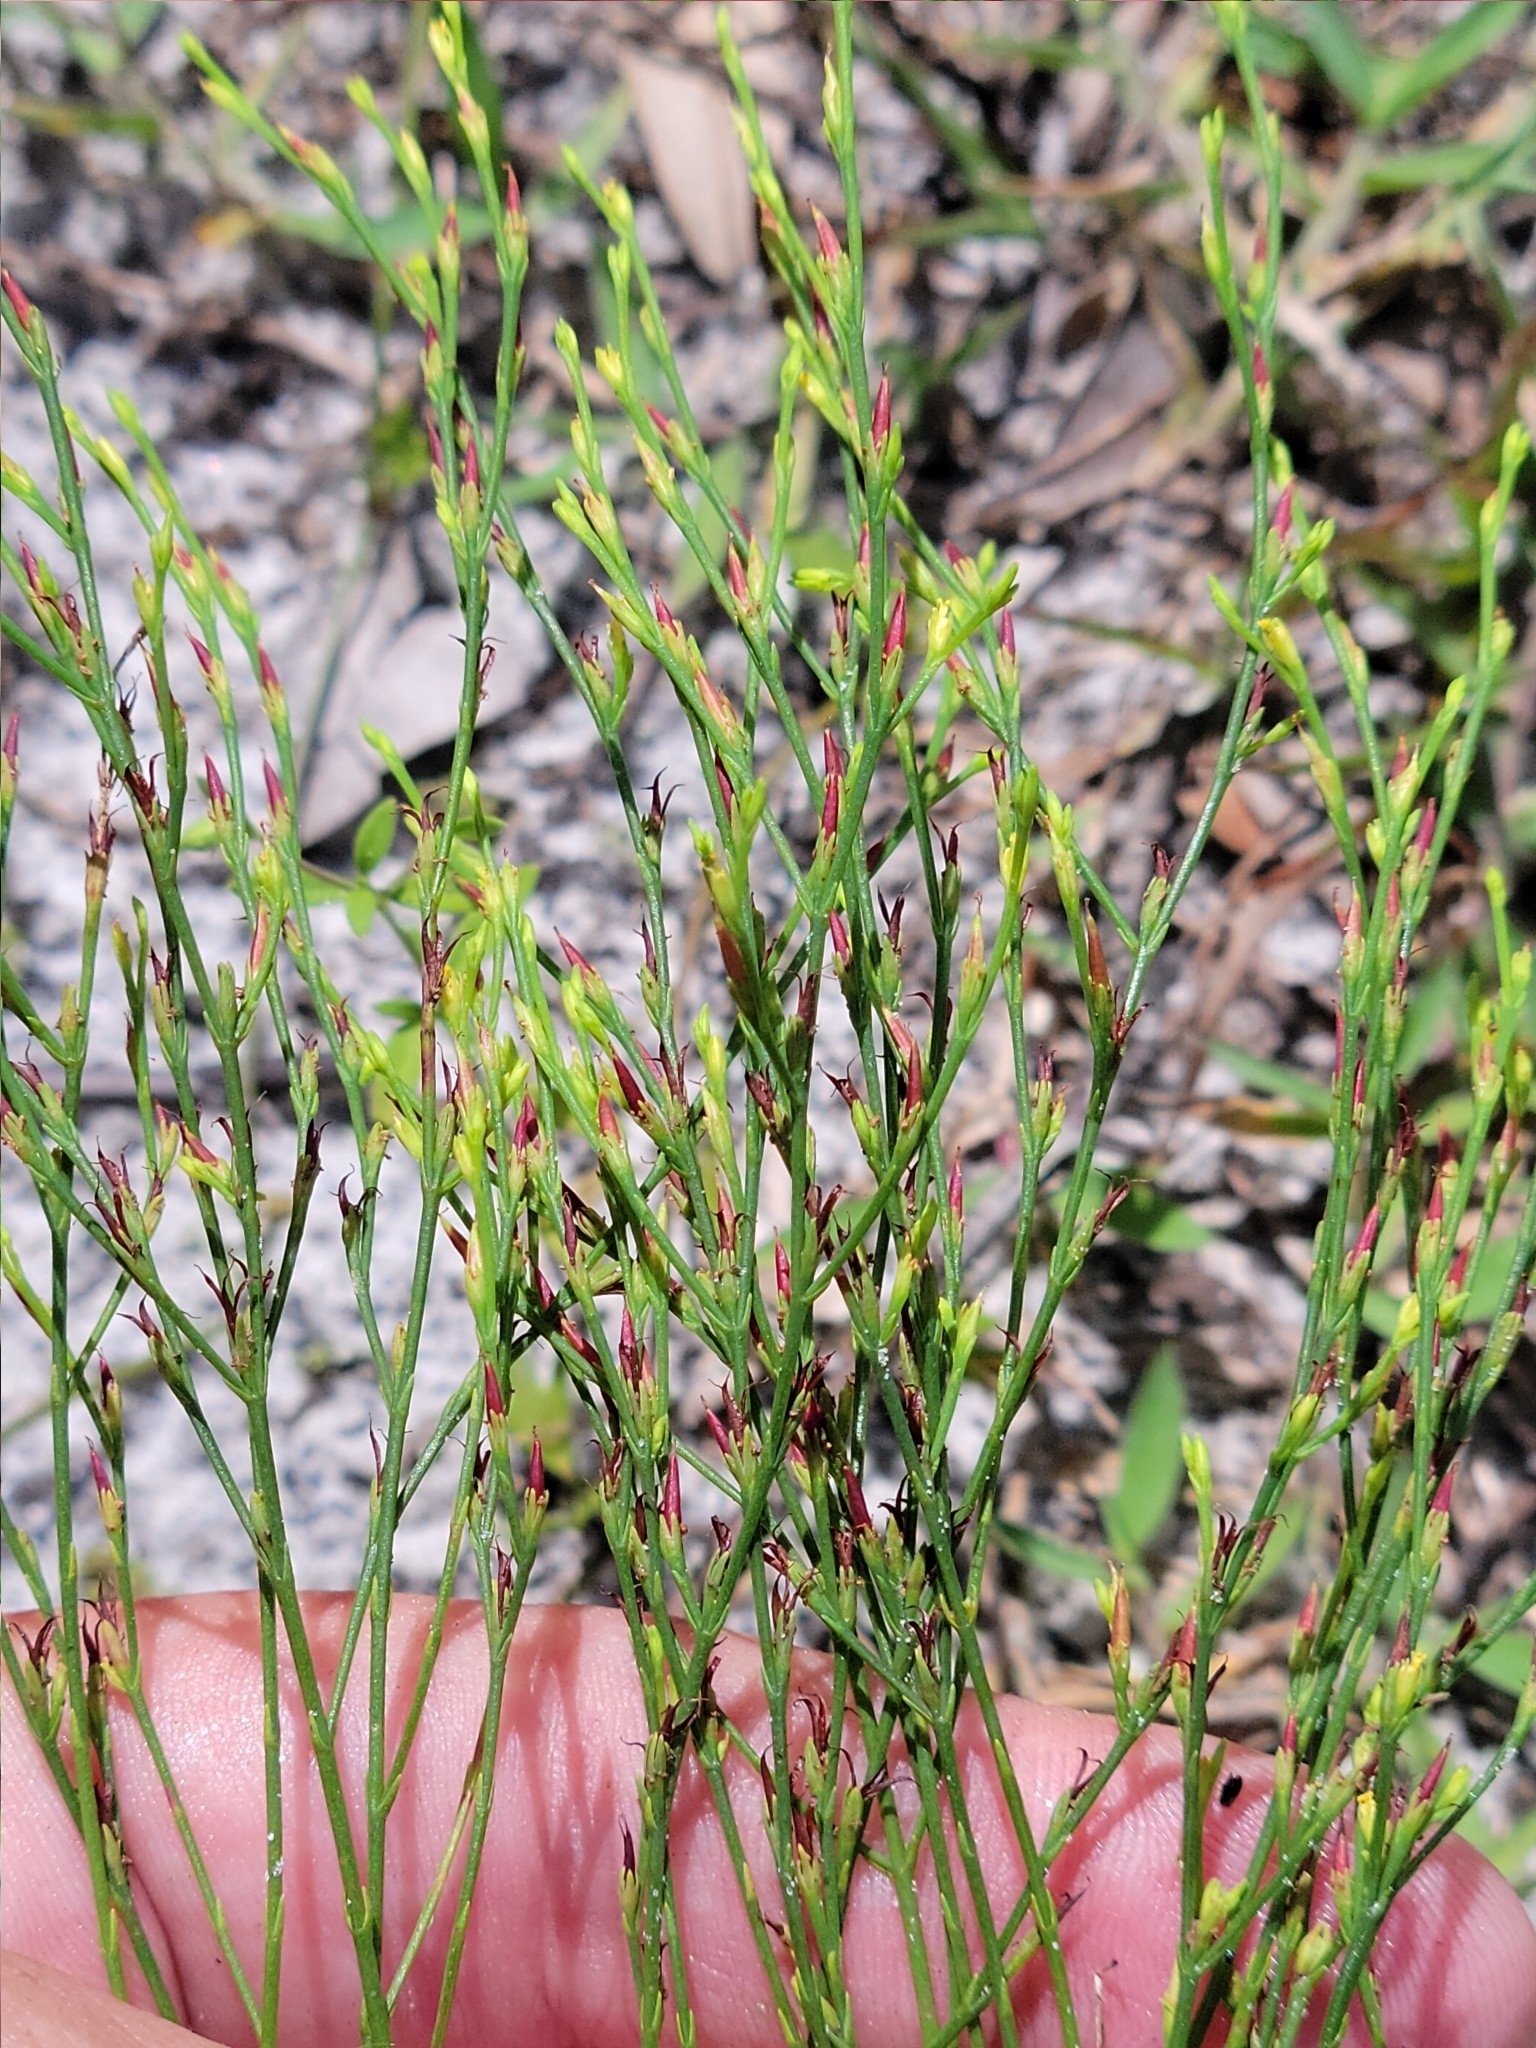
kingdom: Plantae
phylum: Tracheophyta
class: Magnoliopsida
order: Malpighiales
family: Hypericaceae
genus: Hypericum
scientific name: Hypericum gentianoides
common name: Gentian-leaved st. john's-wort
